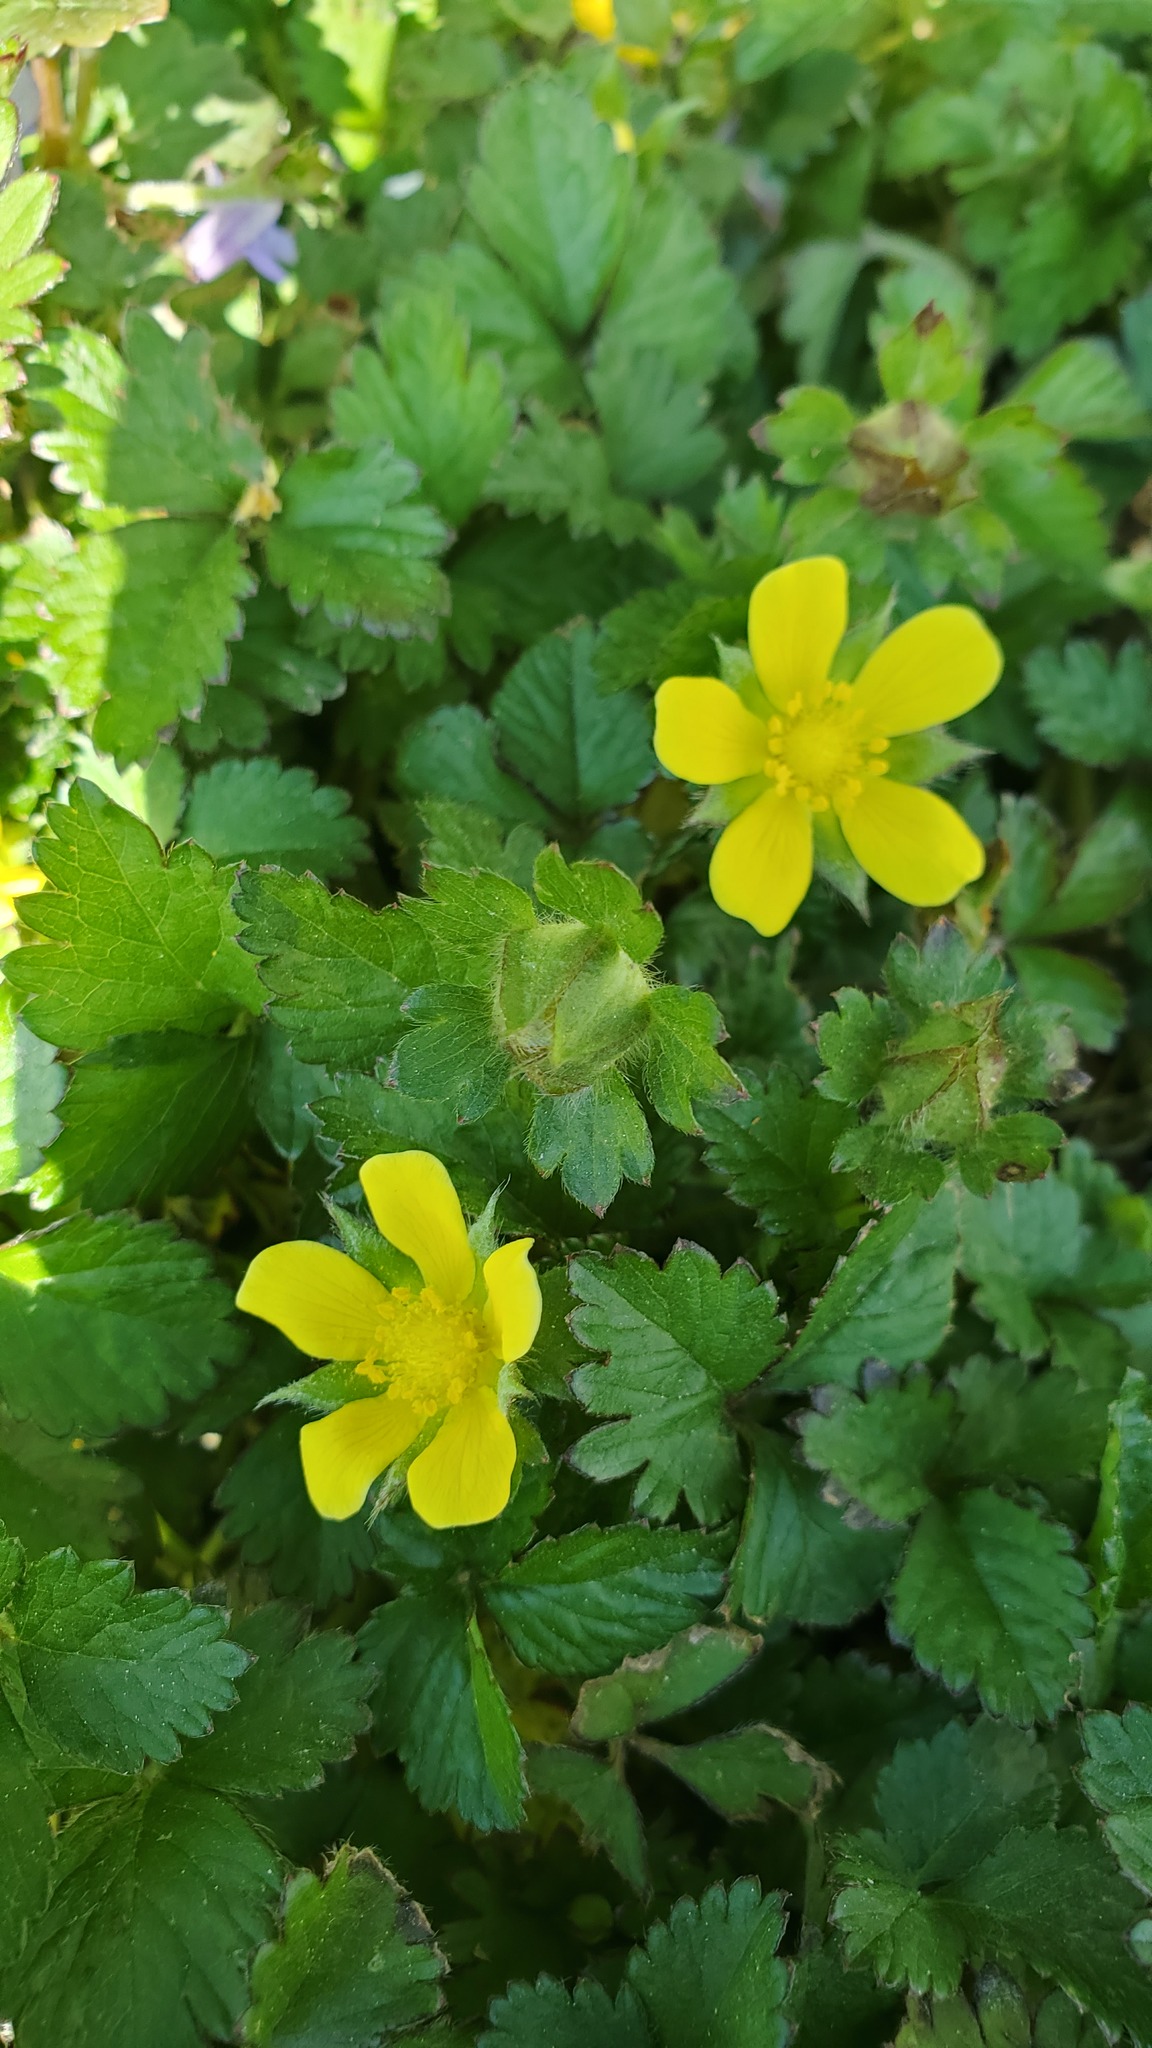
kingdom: Plantae
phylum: Tracheophyta
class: Magnoliopsida
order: Rosales
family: Rosaceae
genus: Potentilla
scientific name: Potentilla indica
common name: Yellow-flowered strawberry
